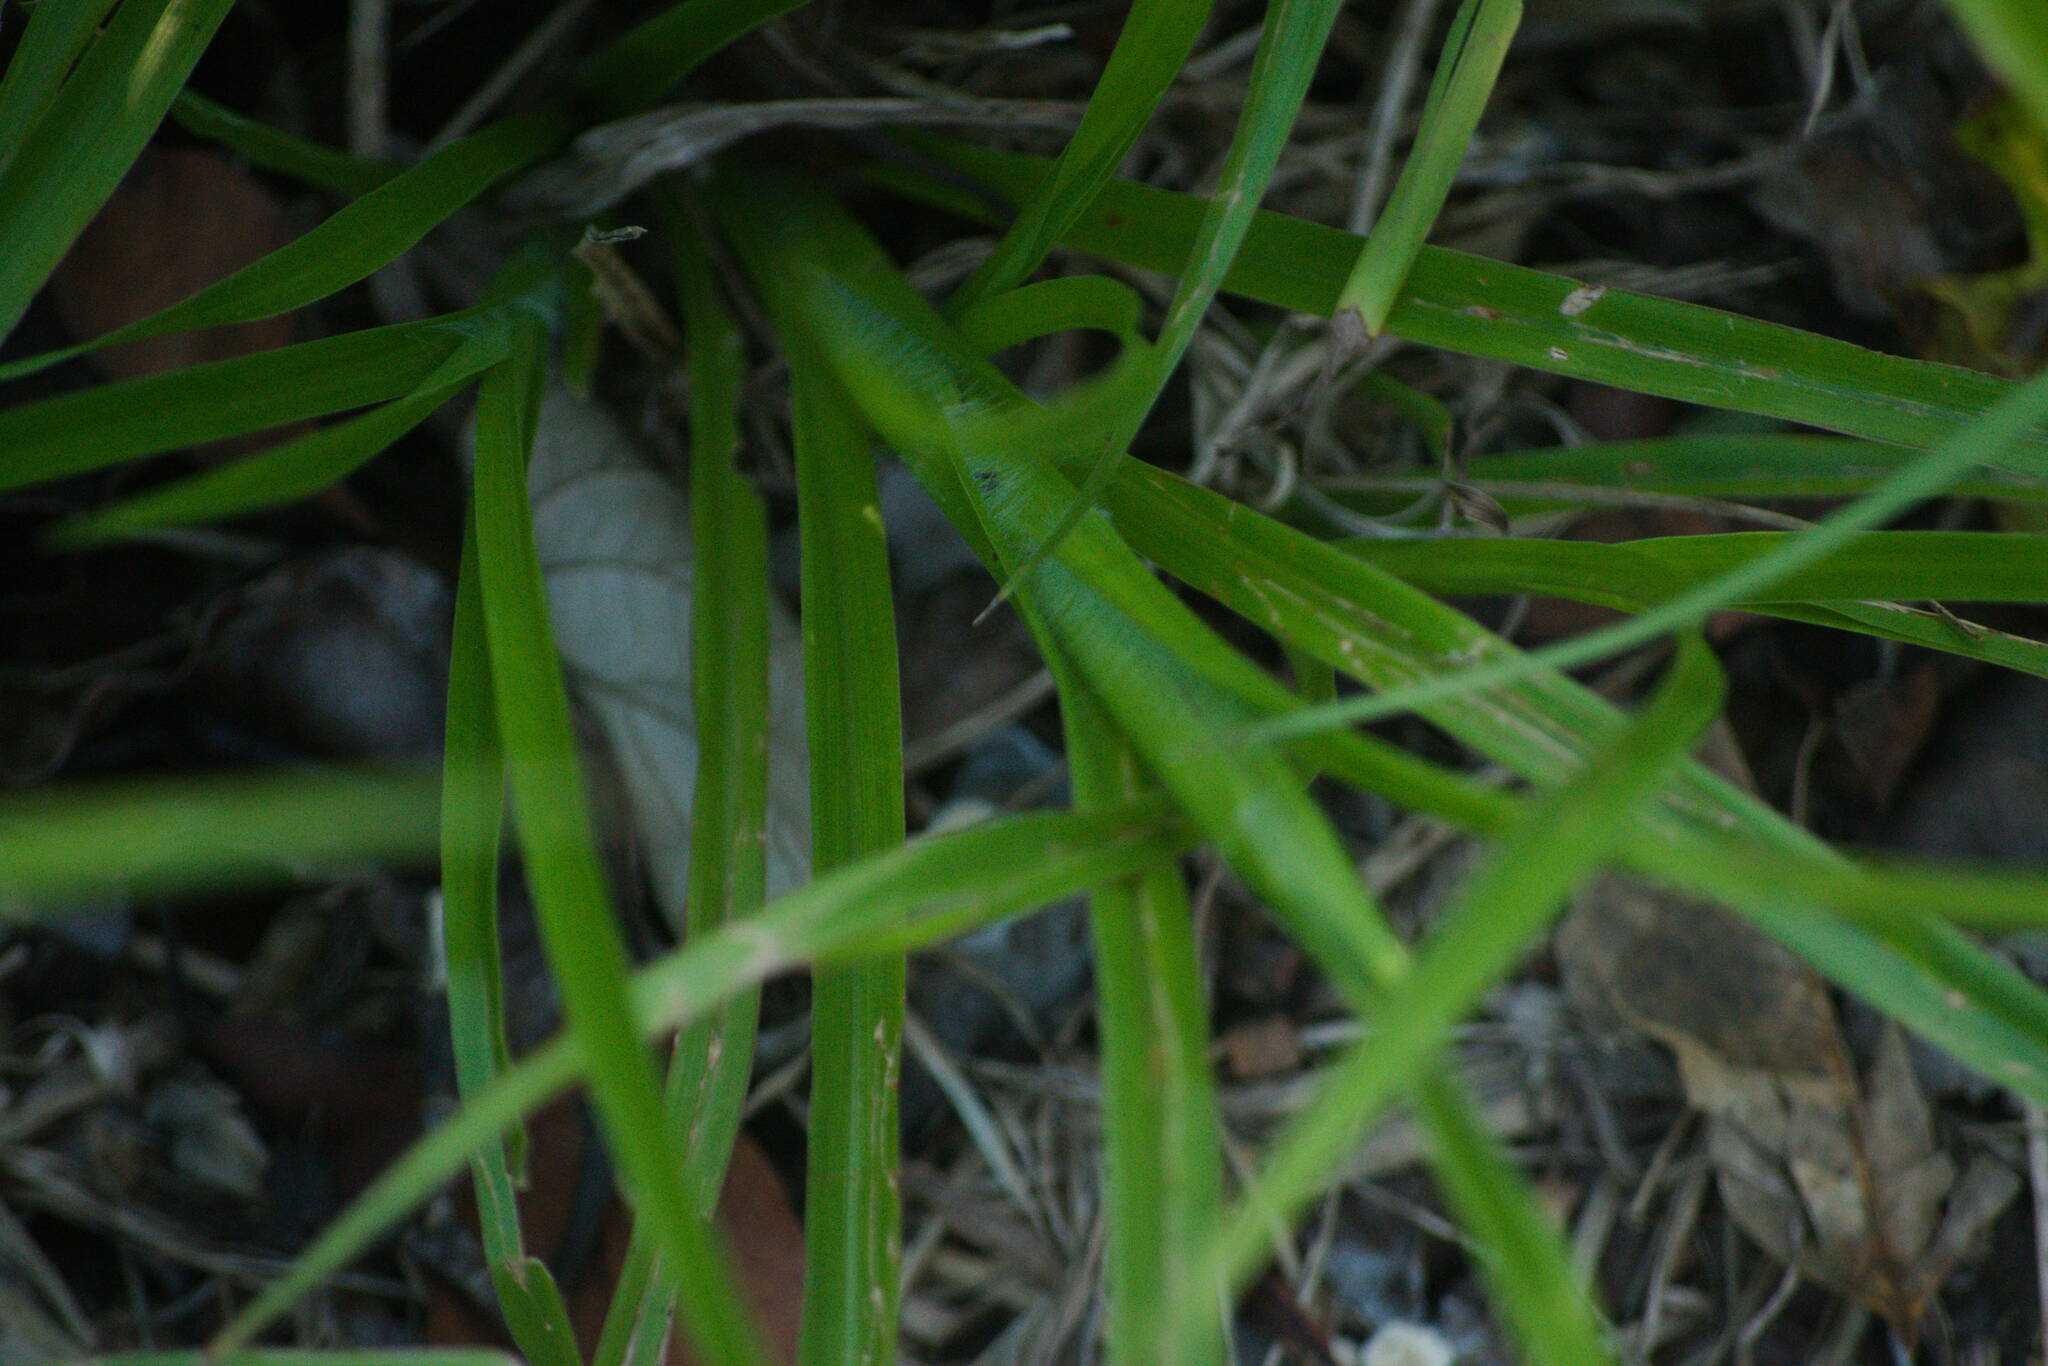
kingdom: Plantae
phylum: Tracheophyta
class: Liliopsida
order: Poales
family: Poaceae
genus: Paspalum
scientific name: Paspalum plicatulum
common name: Top paspalum
